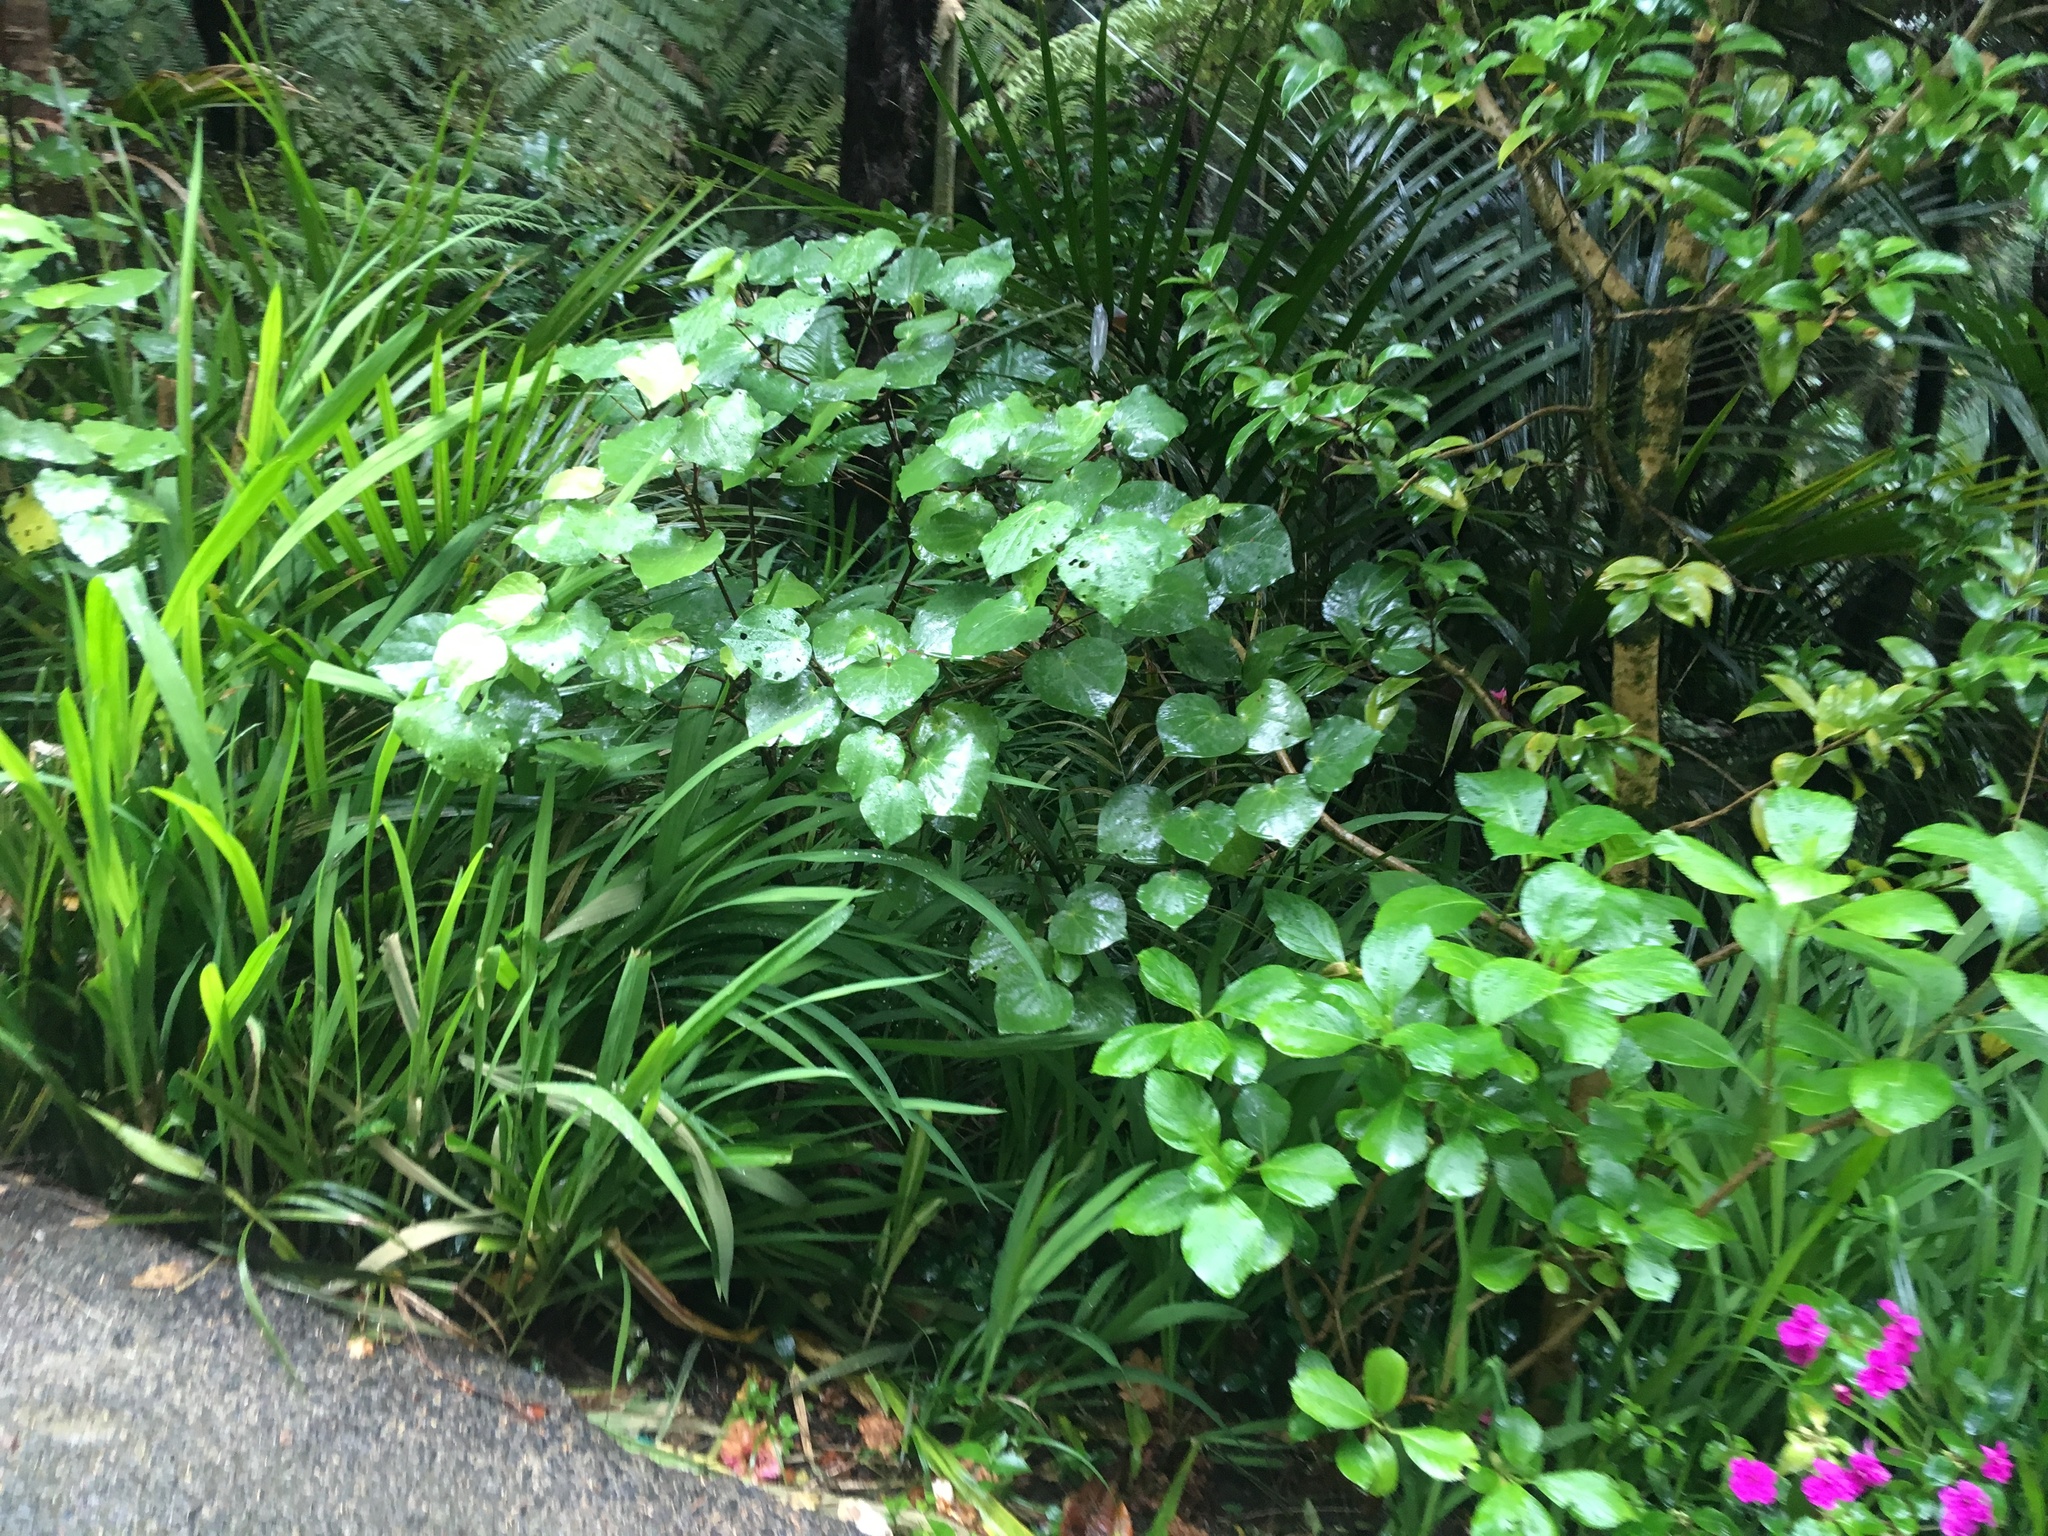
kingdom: Plantae
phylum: Tracheophyta
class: Magnoliopsida
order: Piperales
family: Piperaceae
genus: Macropiper
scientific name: Macropiper excelsum
